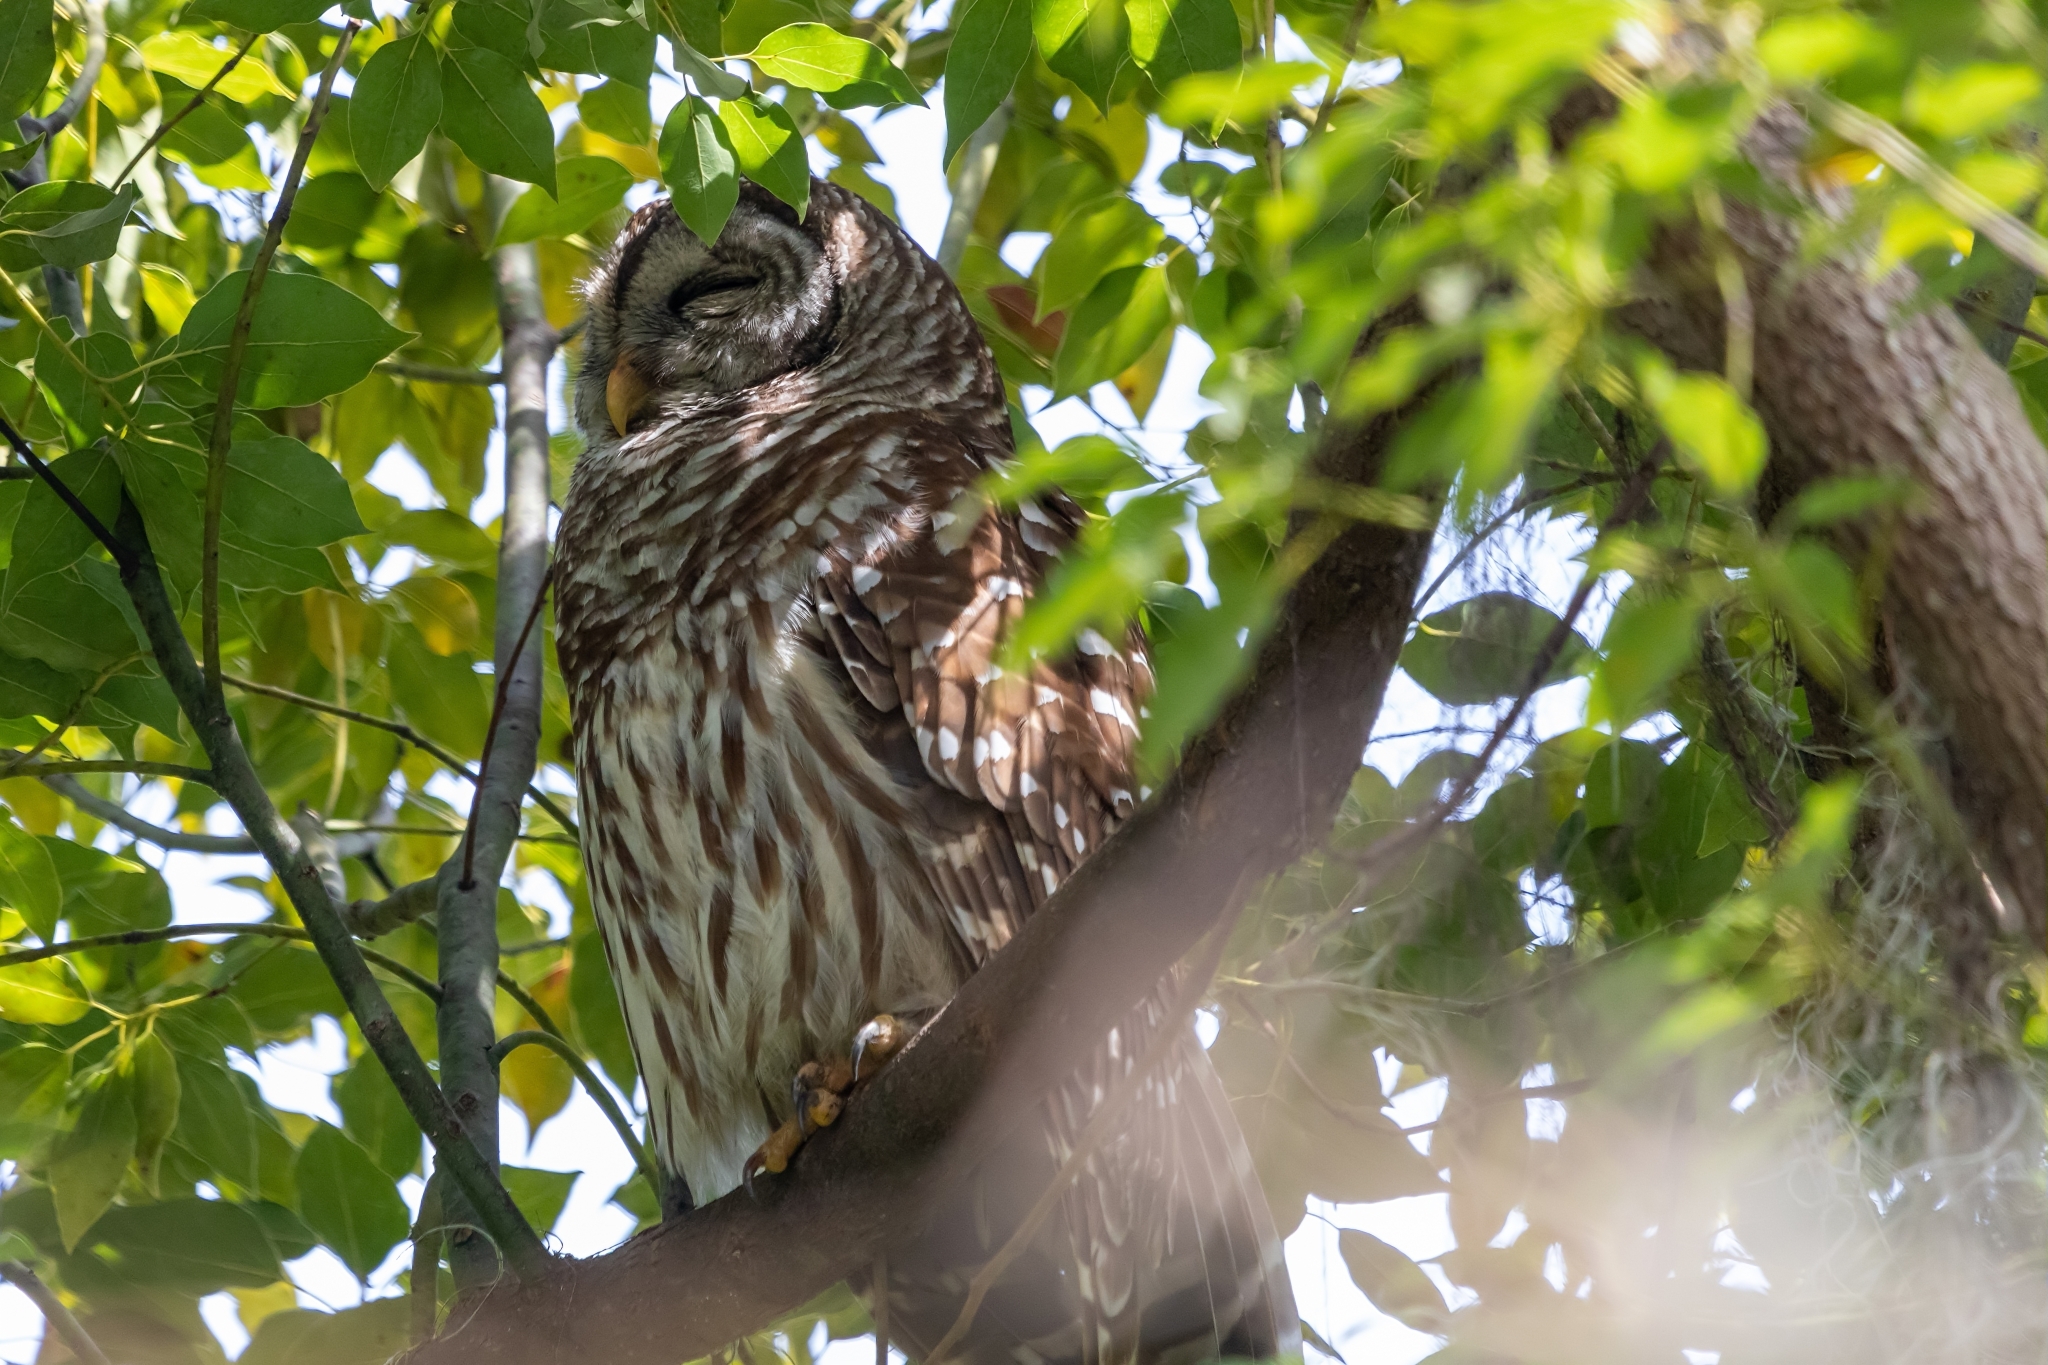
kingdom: Animalia
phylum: Chordata
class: Aves
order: Strigiformes
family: Strigidae
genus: Strix
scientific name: Strix varia
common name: Barred owl
